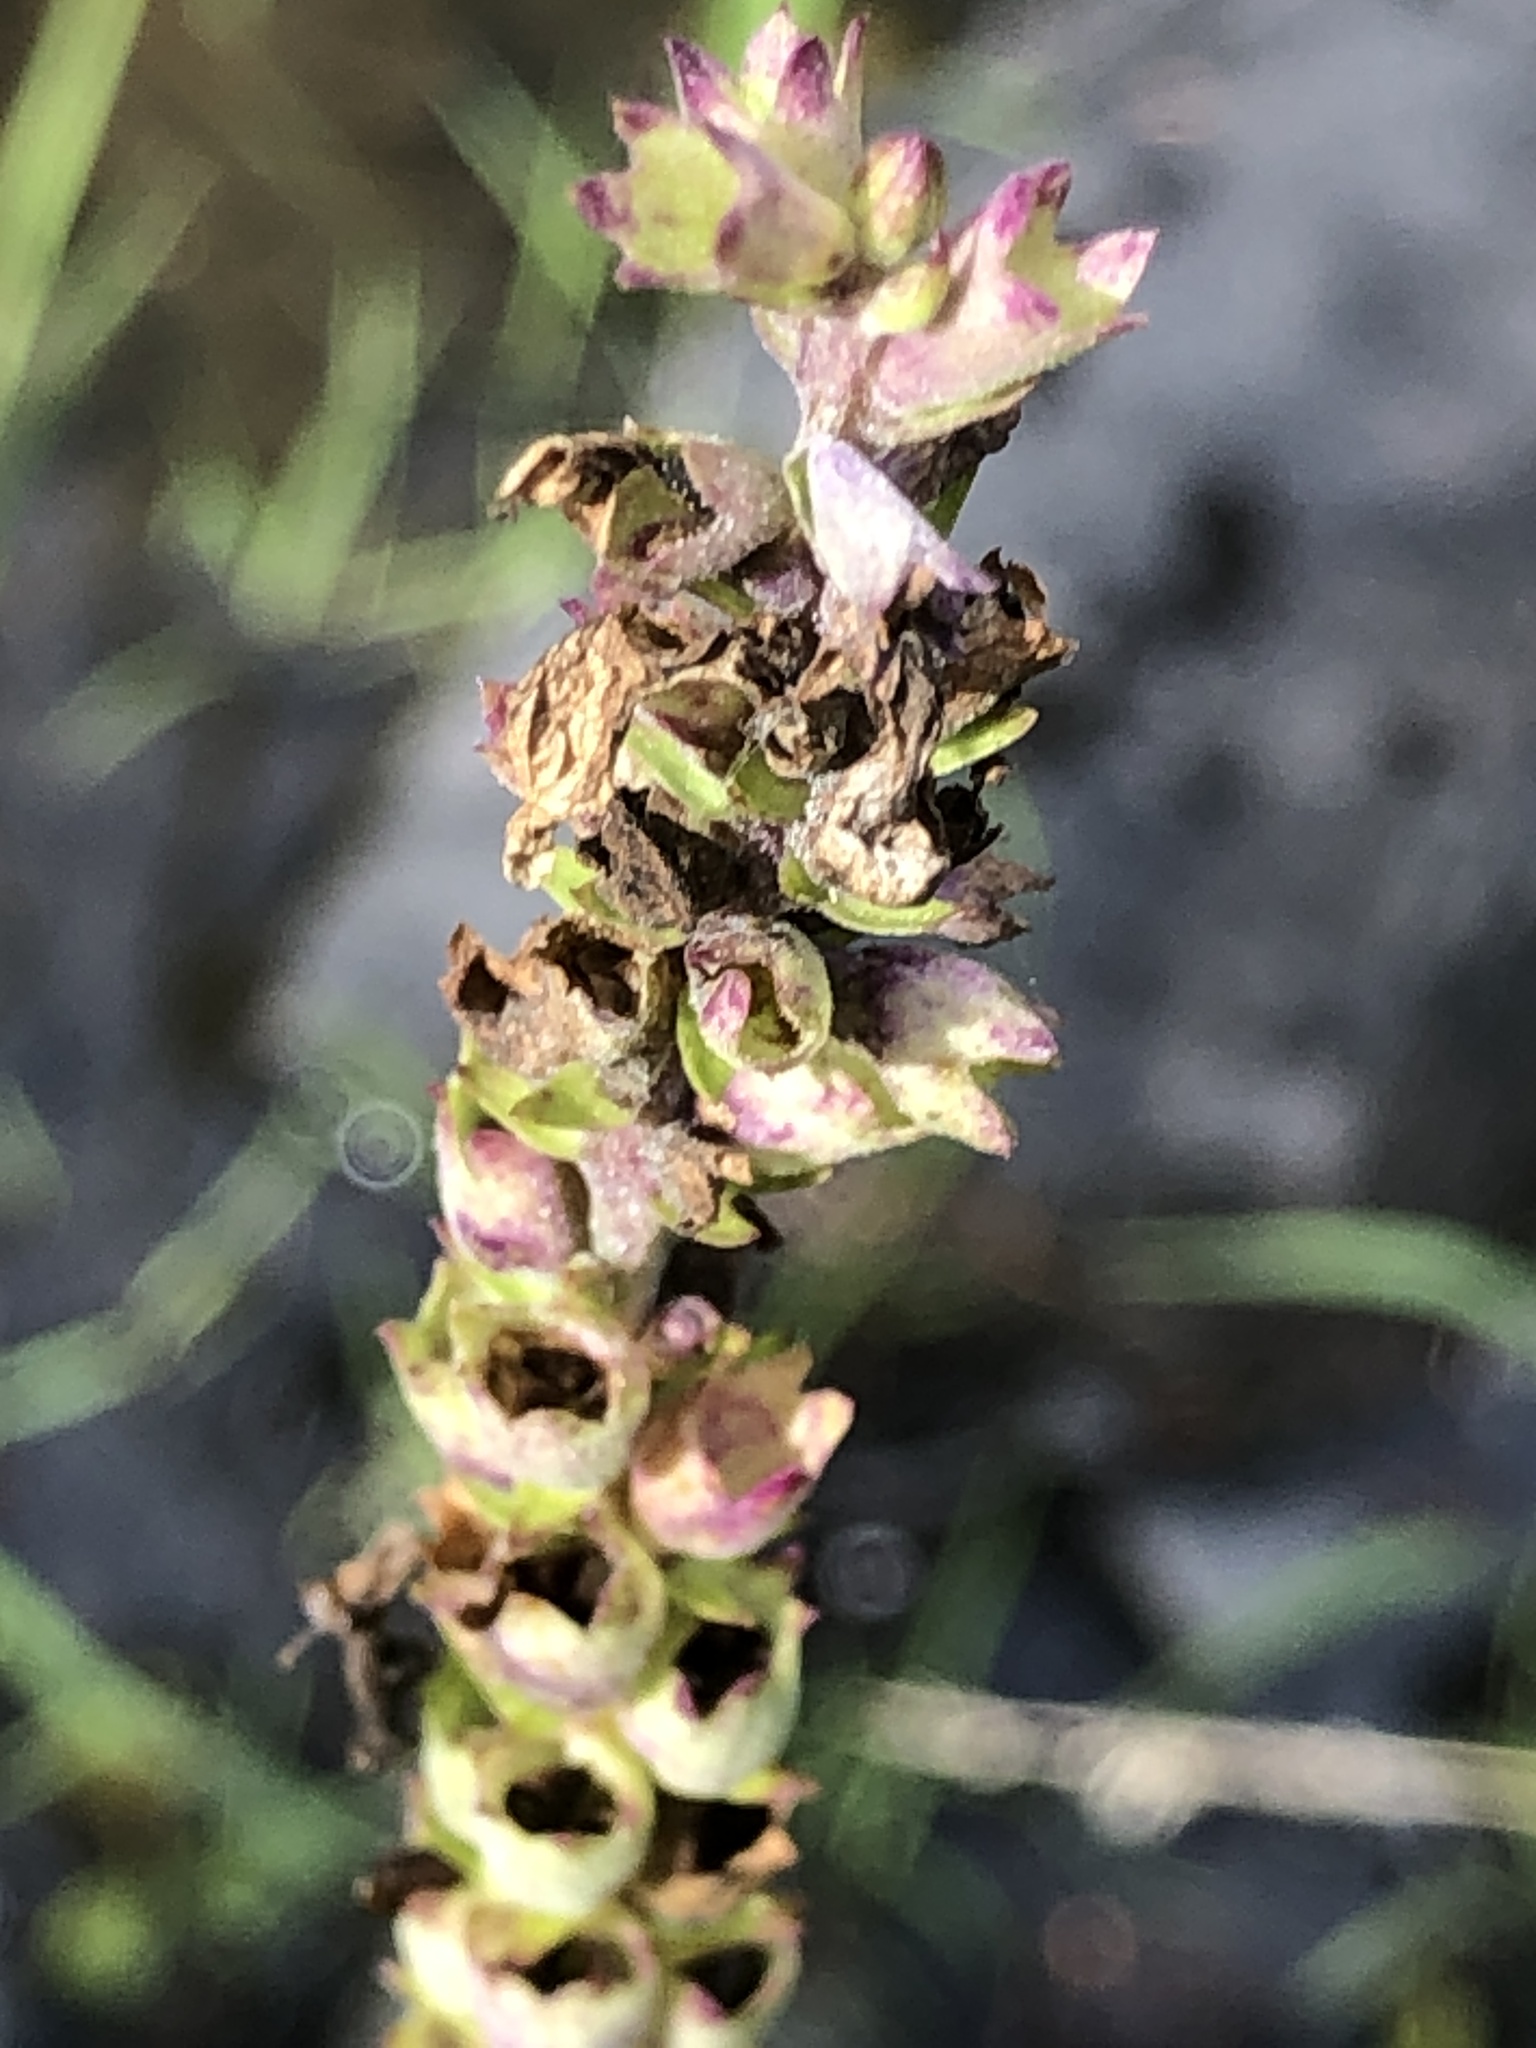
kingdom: Plantae
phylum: Tracheophyta
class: Magnoliopsida
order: Lamiales
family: Lamiaceae
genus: Physostegia
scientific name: Physostegia virginiana
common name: Obedient-plant
